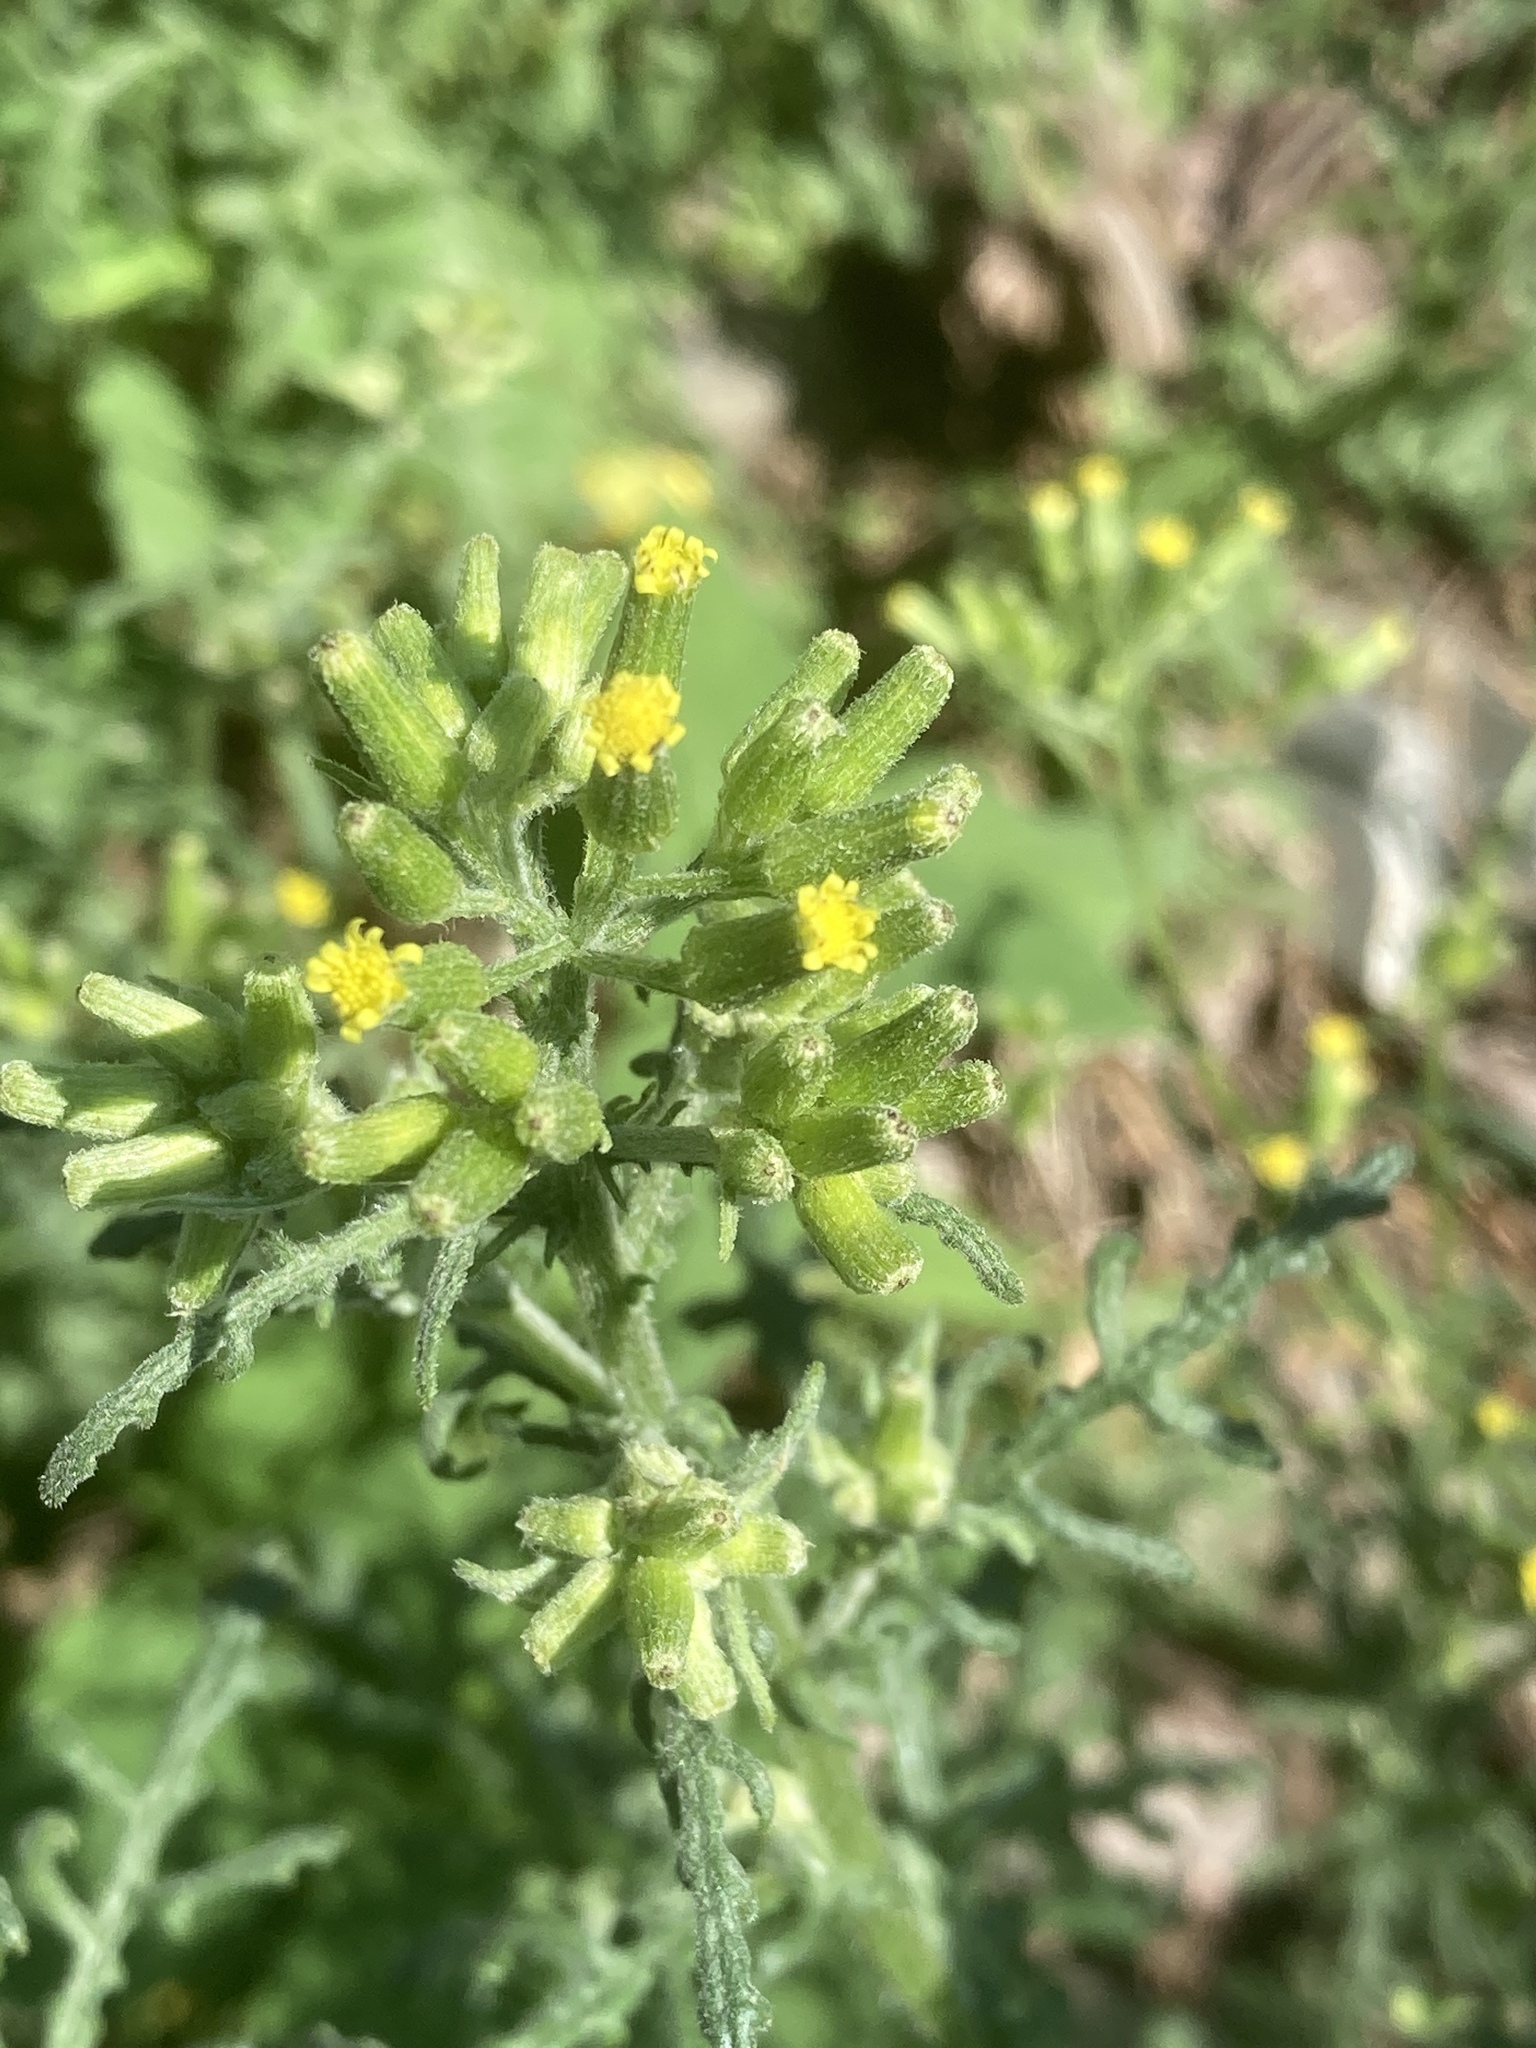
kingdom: Plantae
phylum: Tracheophyta
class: Magnoliopsida
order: Asterales
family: Asteraceae
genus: Senecio
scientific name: Senecio sylvaticus
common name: Woodland ragwort
